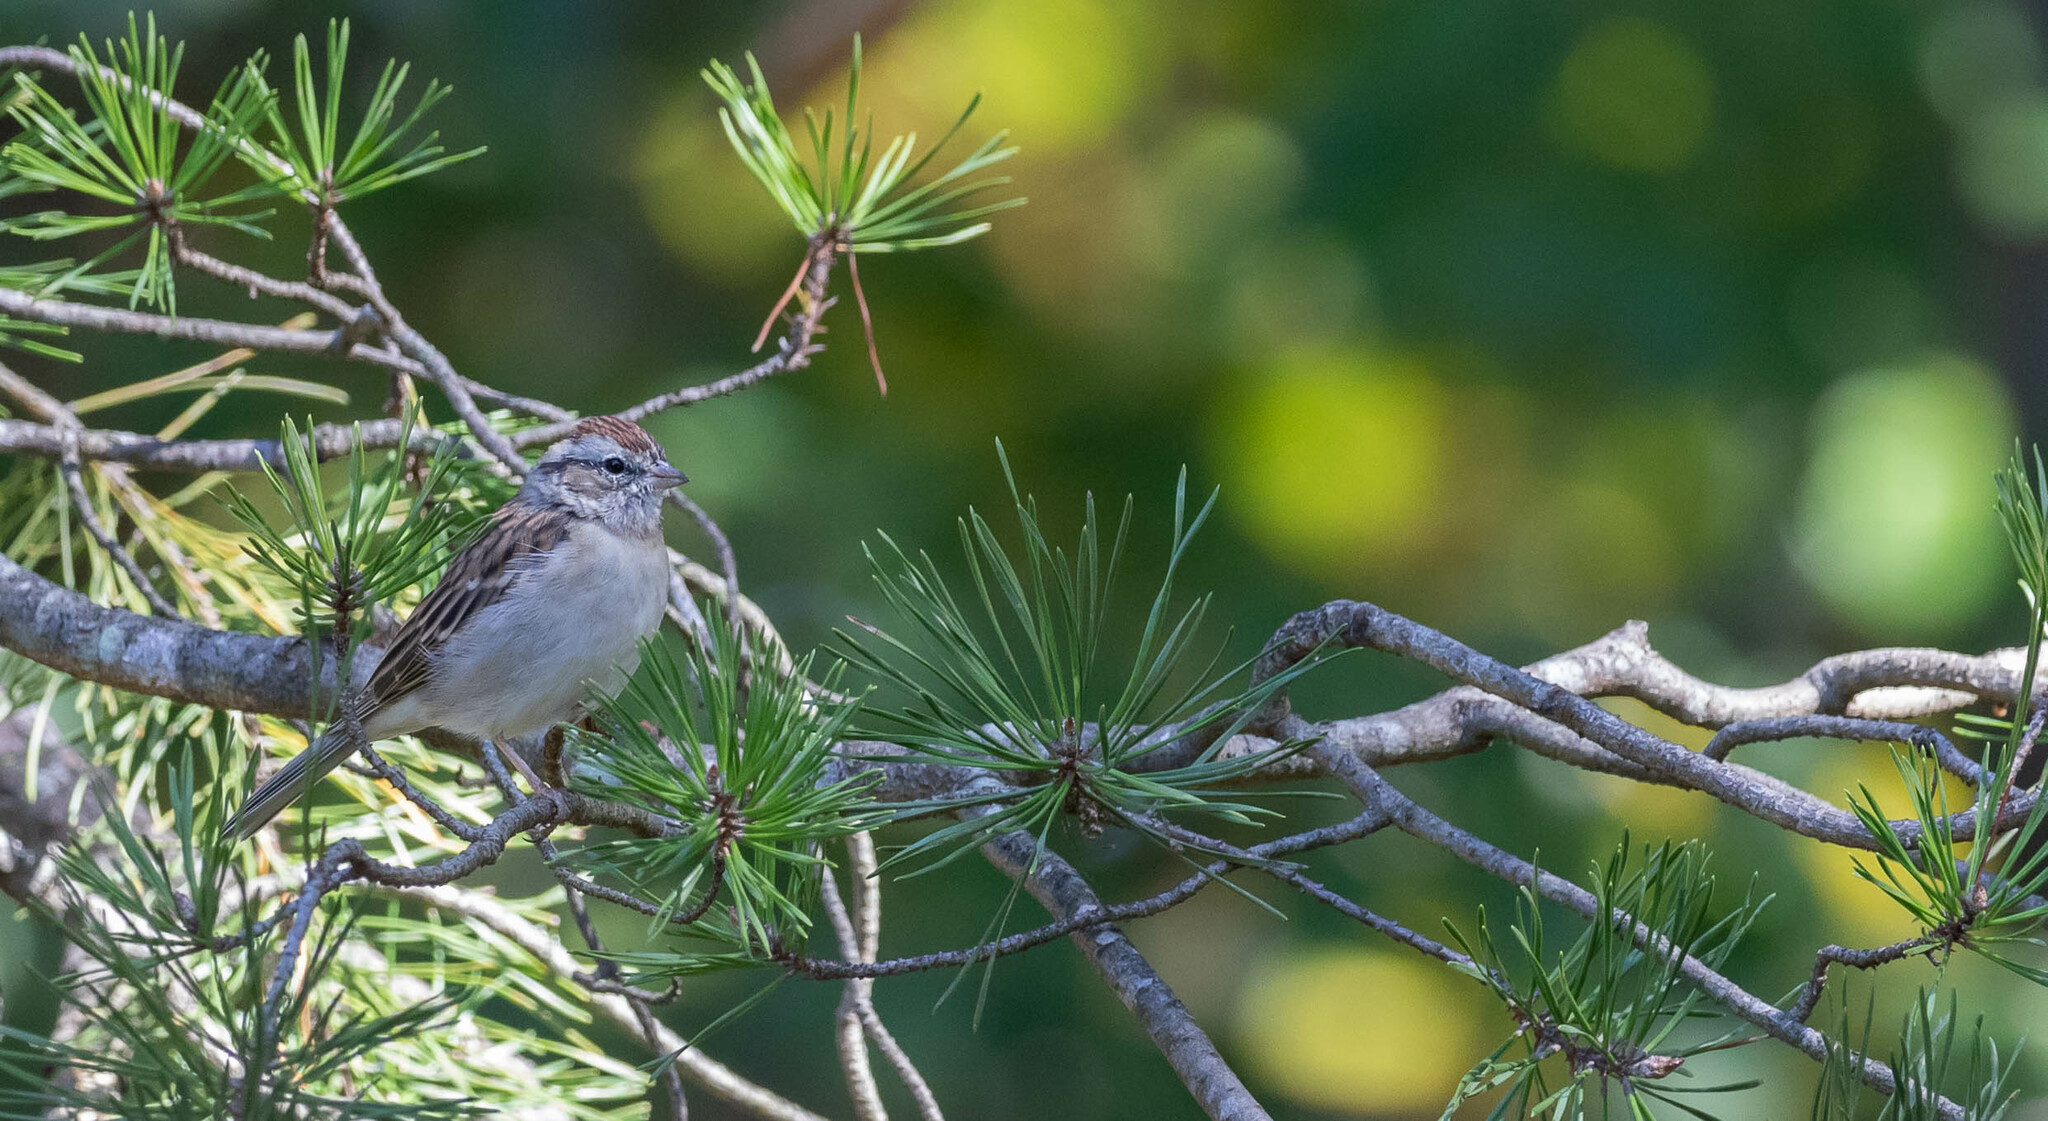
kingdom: Animalia
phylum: Chordata
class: Aves
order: Passeriformes
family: Passerellidae
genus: Spizella
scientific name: Spizella passerina
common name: Chipping sparrow
